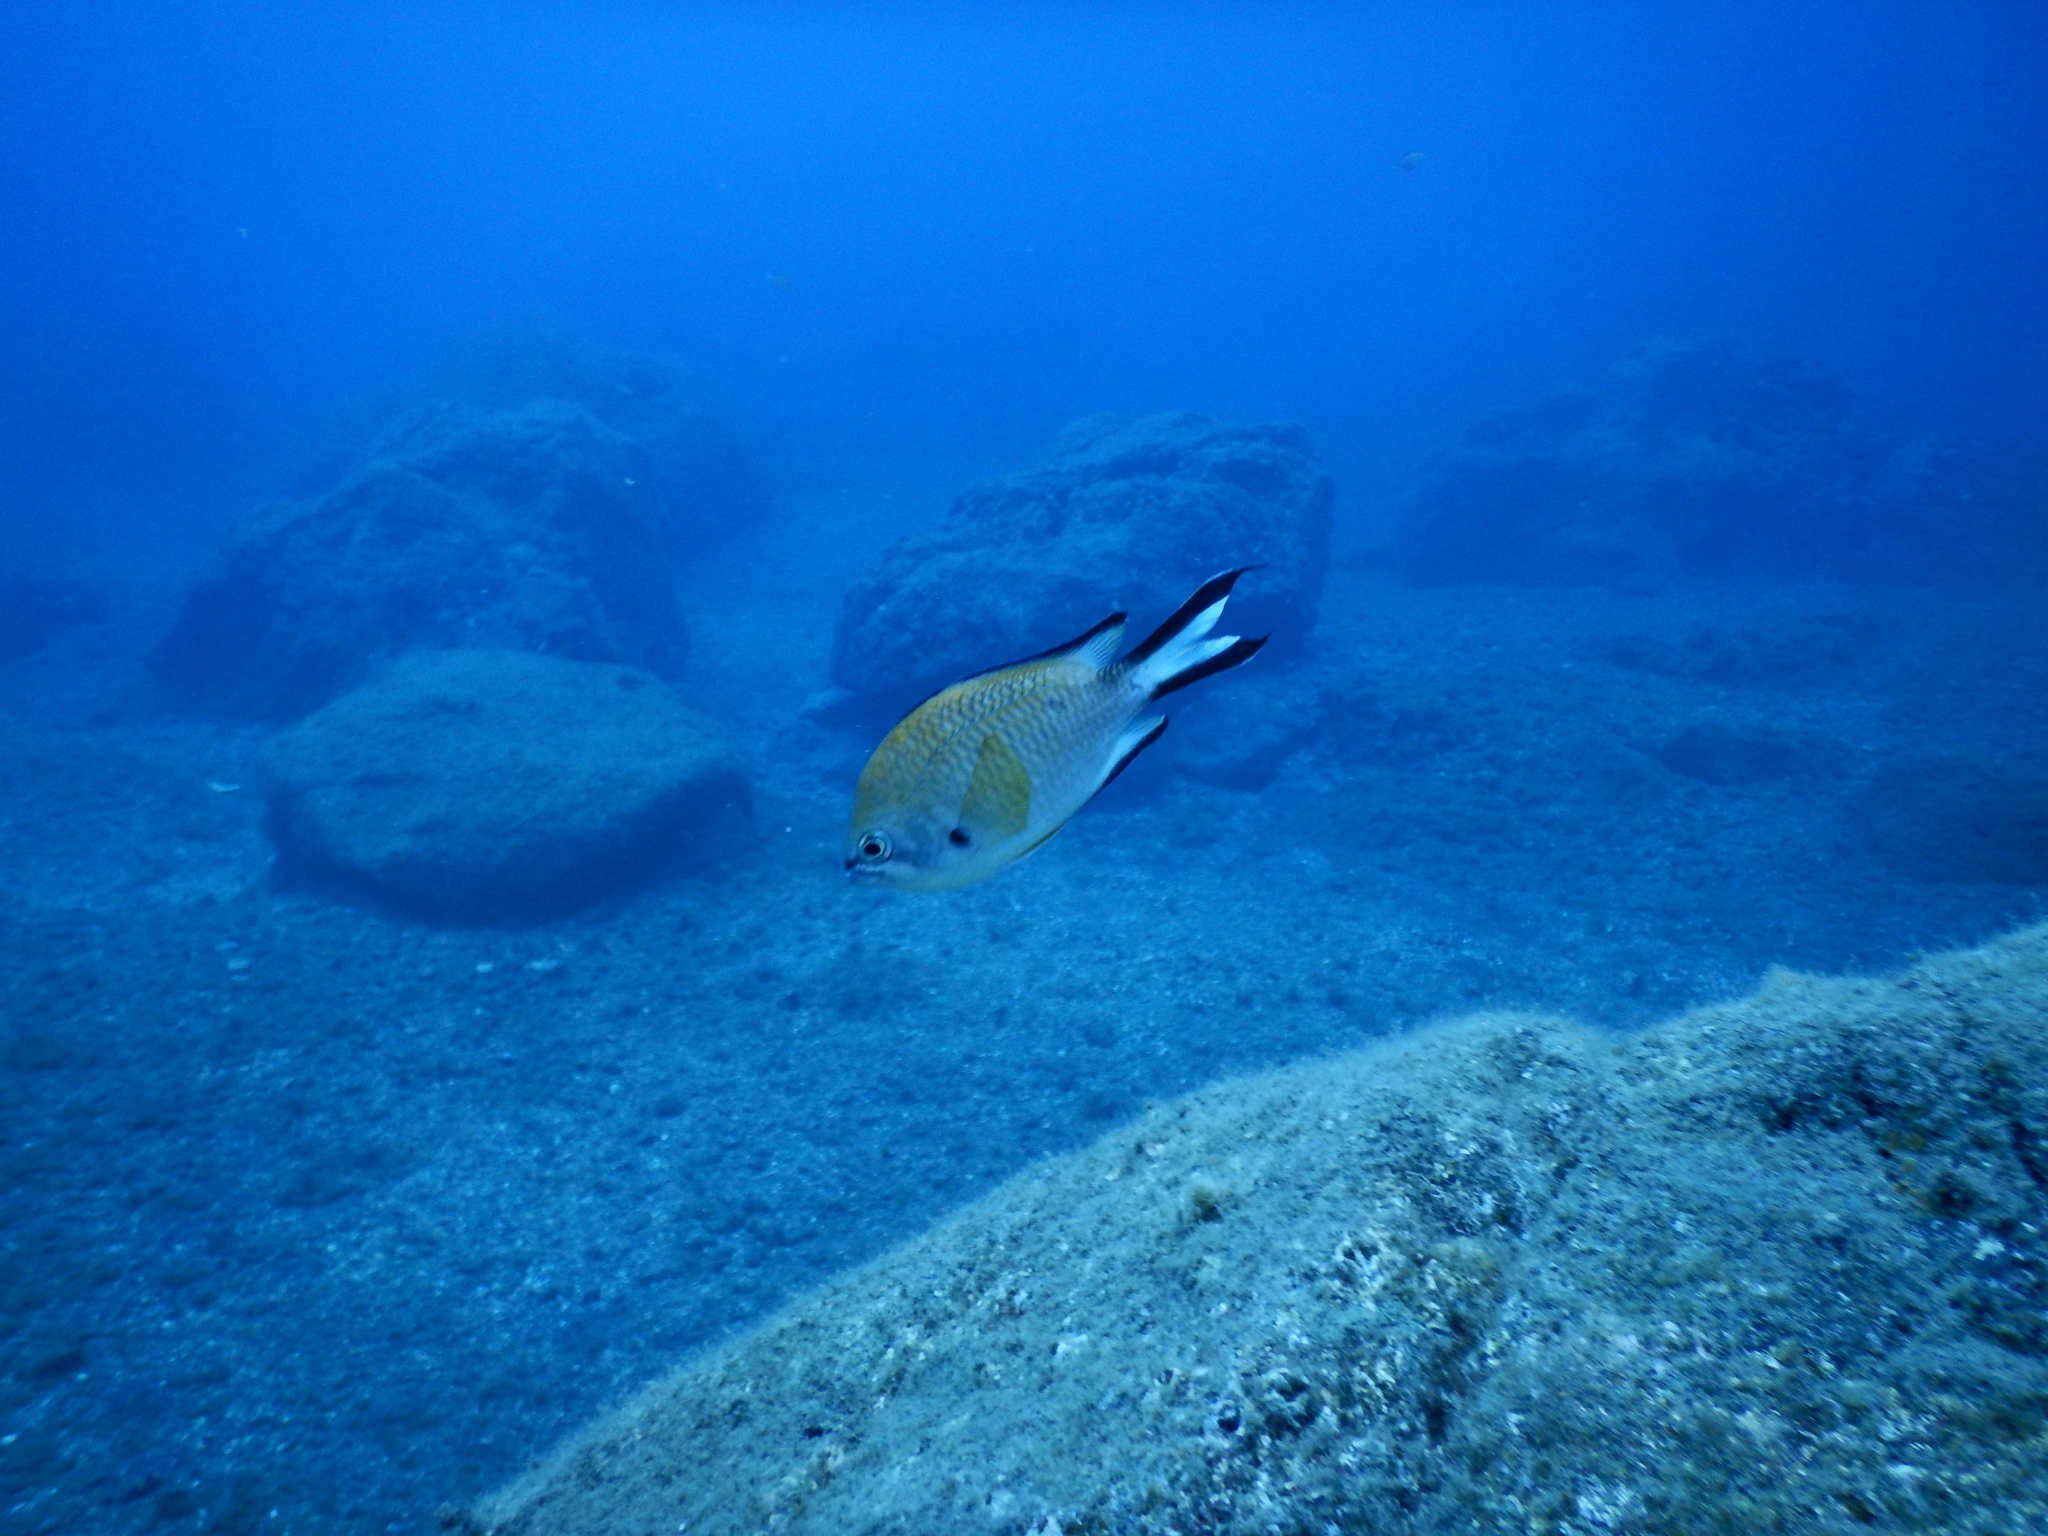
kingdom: Animalia
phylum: Chordata
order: Perciformes
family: Pomacentridae
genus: Chromis
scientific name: Chromis limbata
